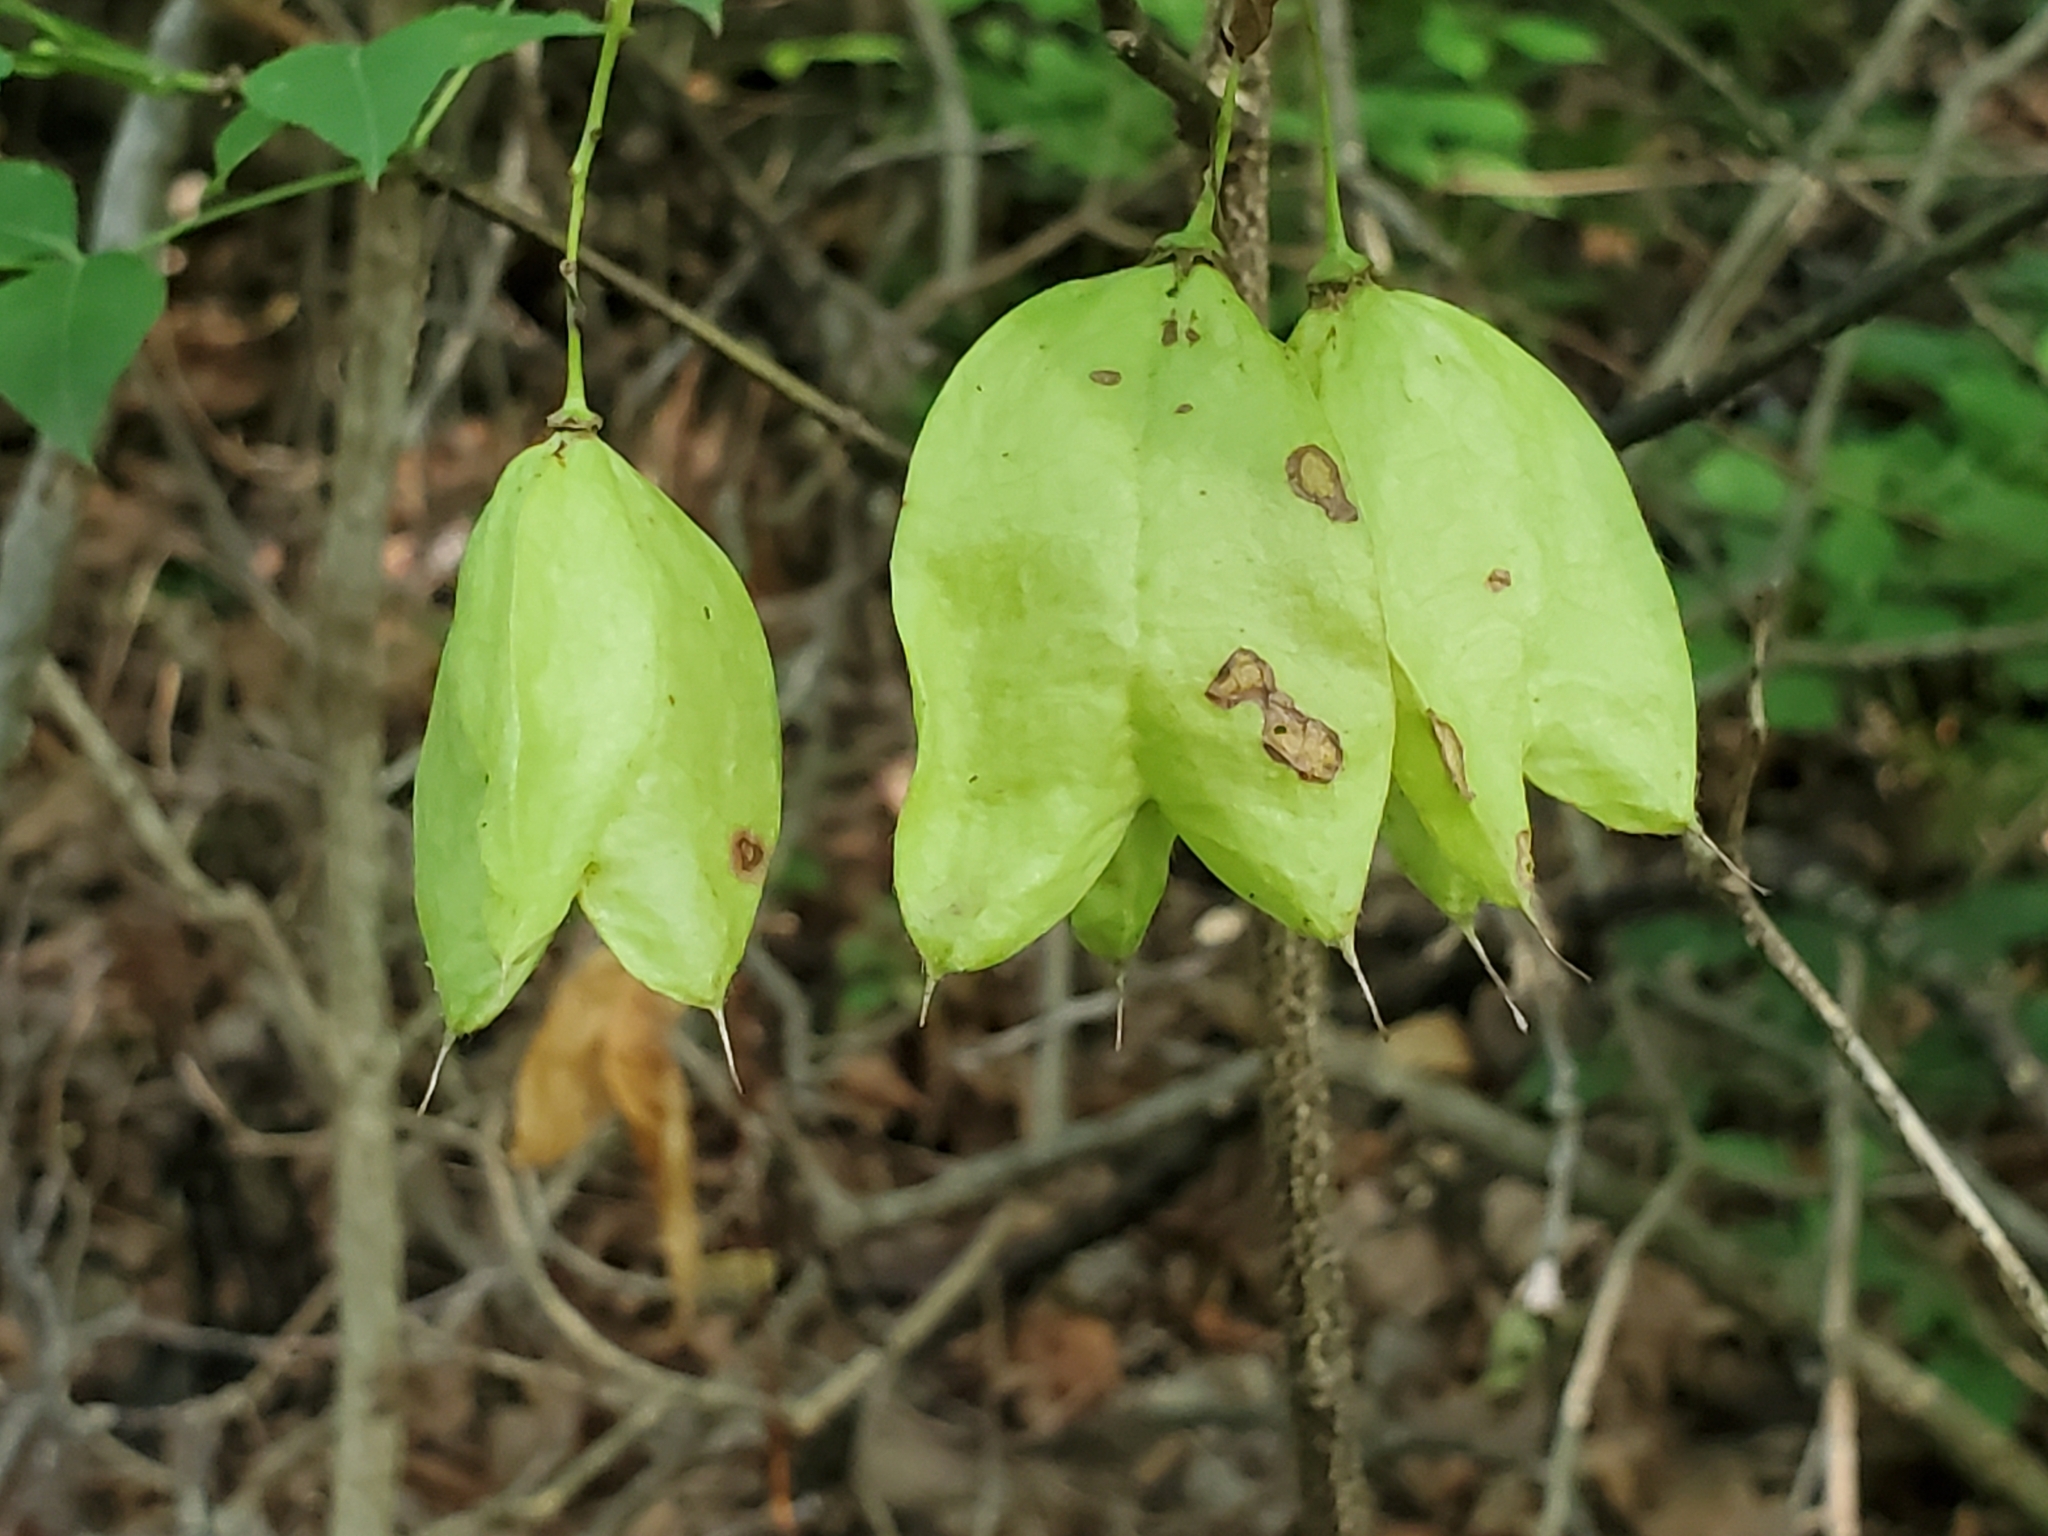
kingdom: Plantae
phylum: Tracheophyta
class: Magnoliopsida
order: Crossosomatales
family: Staphyleaceae
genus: Staphylea
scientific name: Staphylea trifolia
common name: American bladdernut
